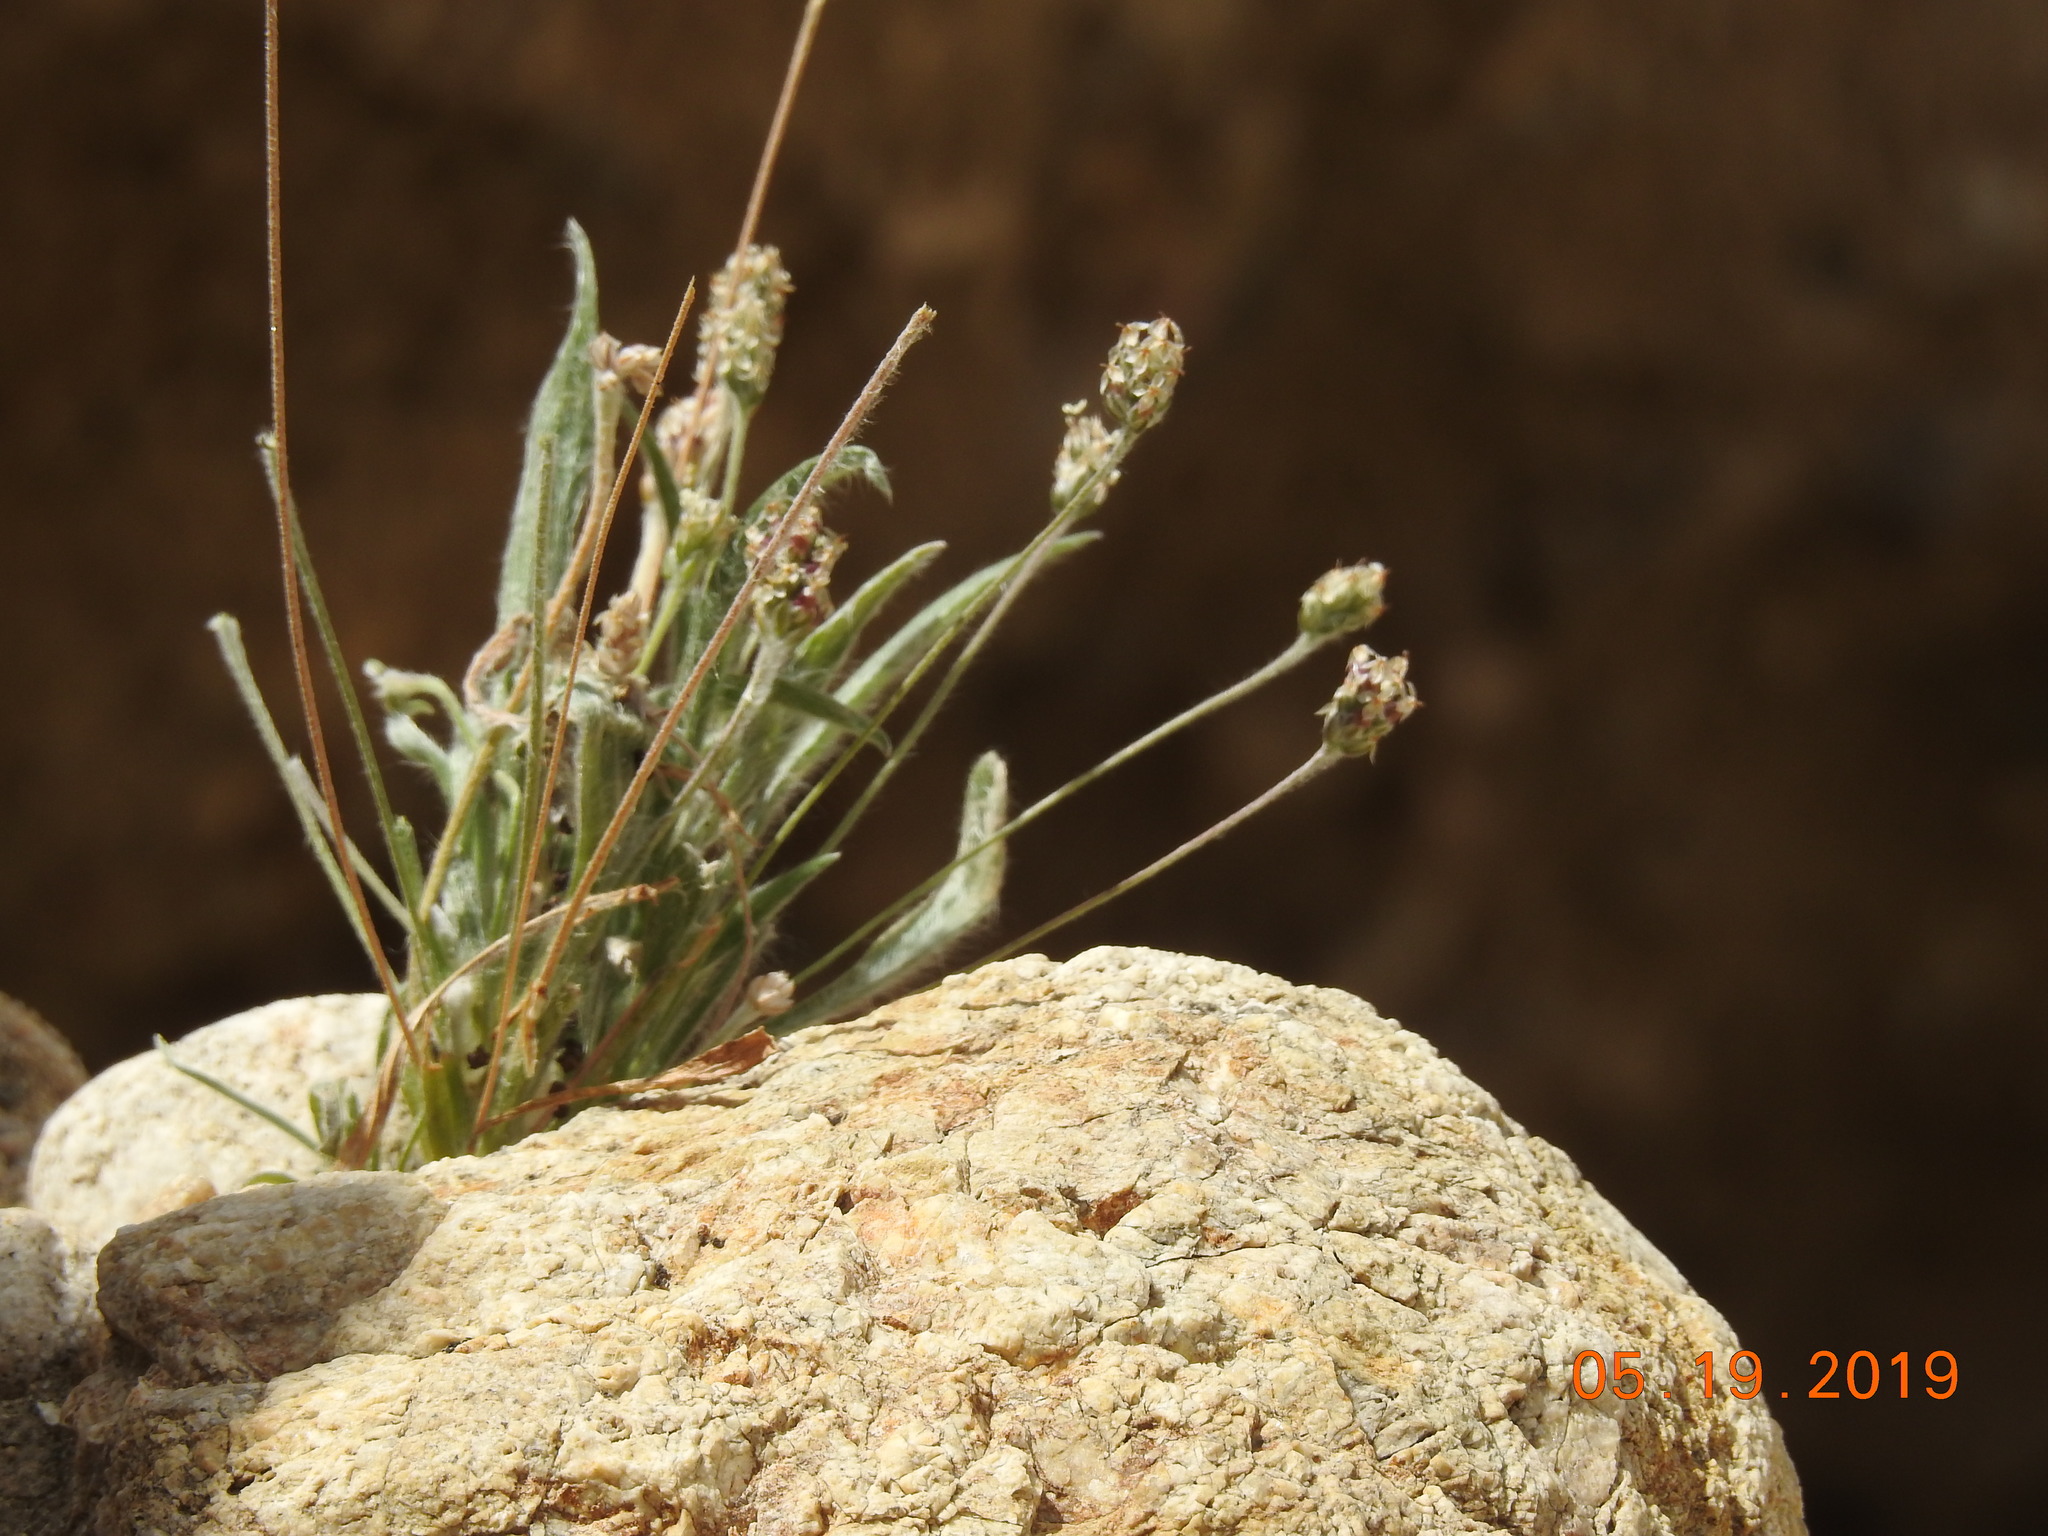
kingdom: Plantae
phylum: Tracheophyta
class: Magnoliopsida
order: Lamiales
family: Plantaginaceae
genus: Plantago
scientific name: Plantago ovata
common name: Blond plantain
